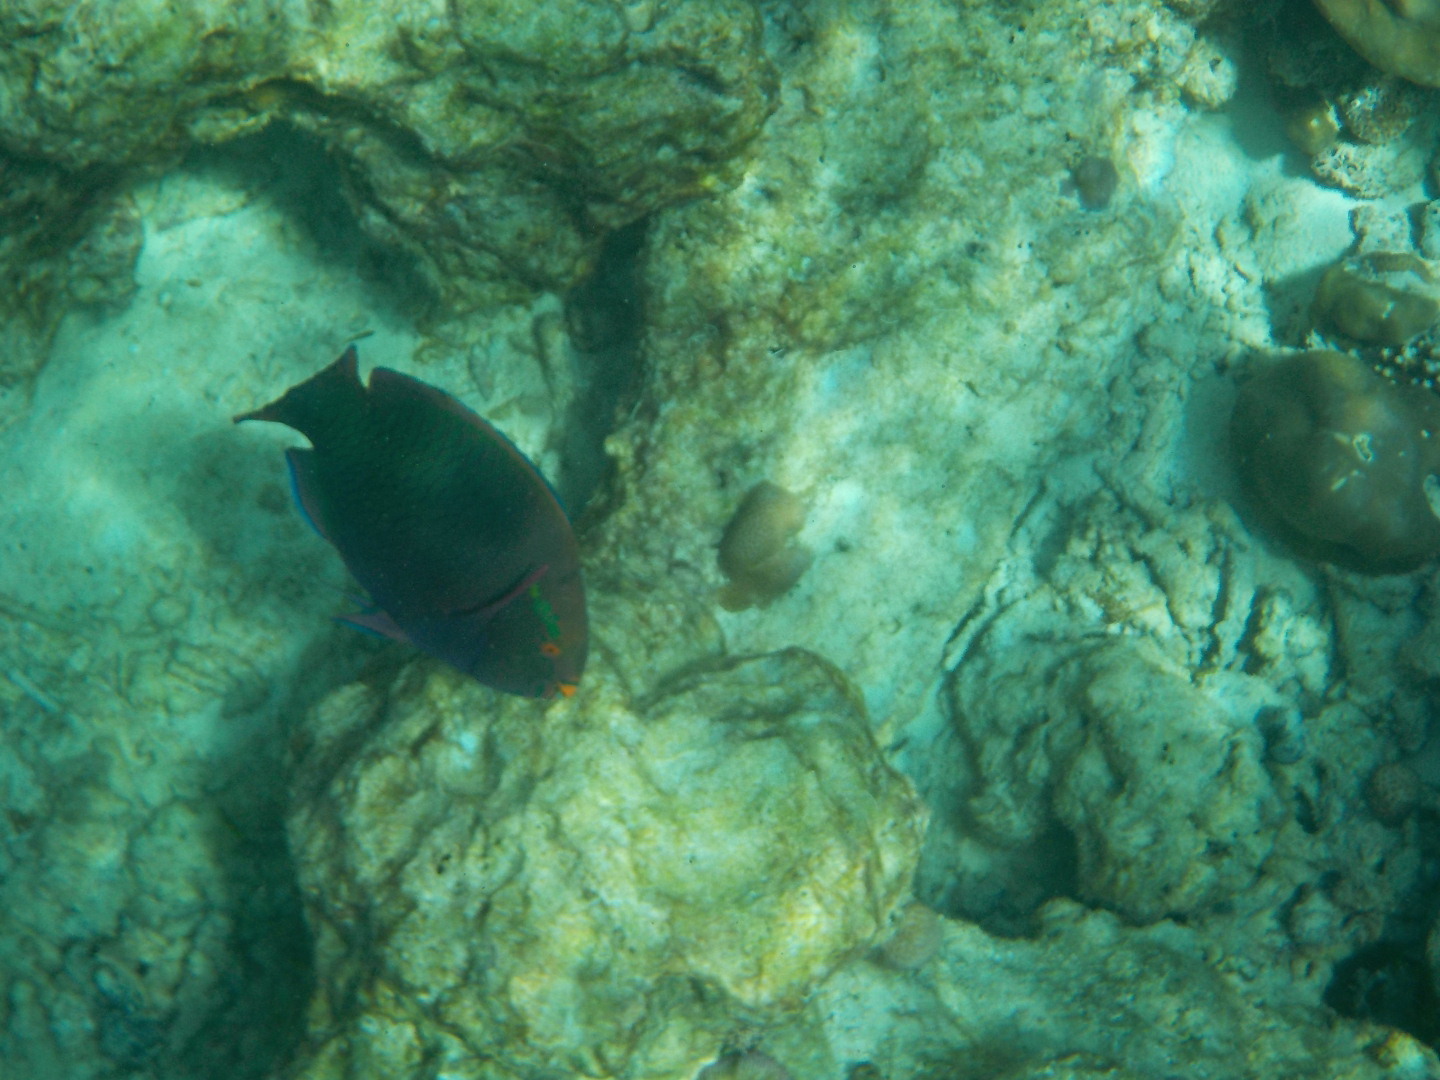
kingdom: Animalia
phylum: Chordata
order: Perciformes
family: Scaridae
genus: Scarus
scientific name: Scarus niger
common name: Dusky parrotfish
